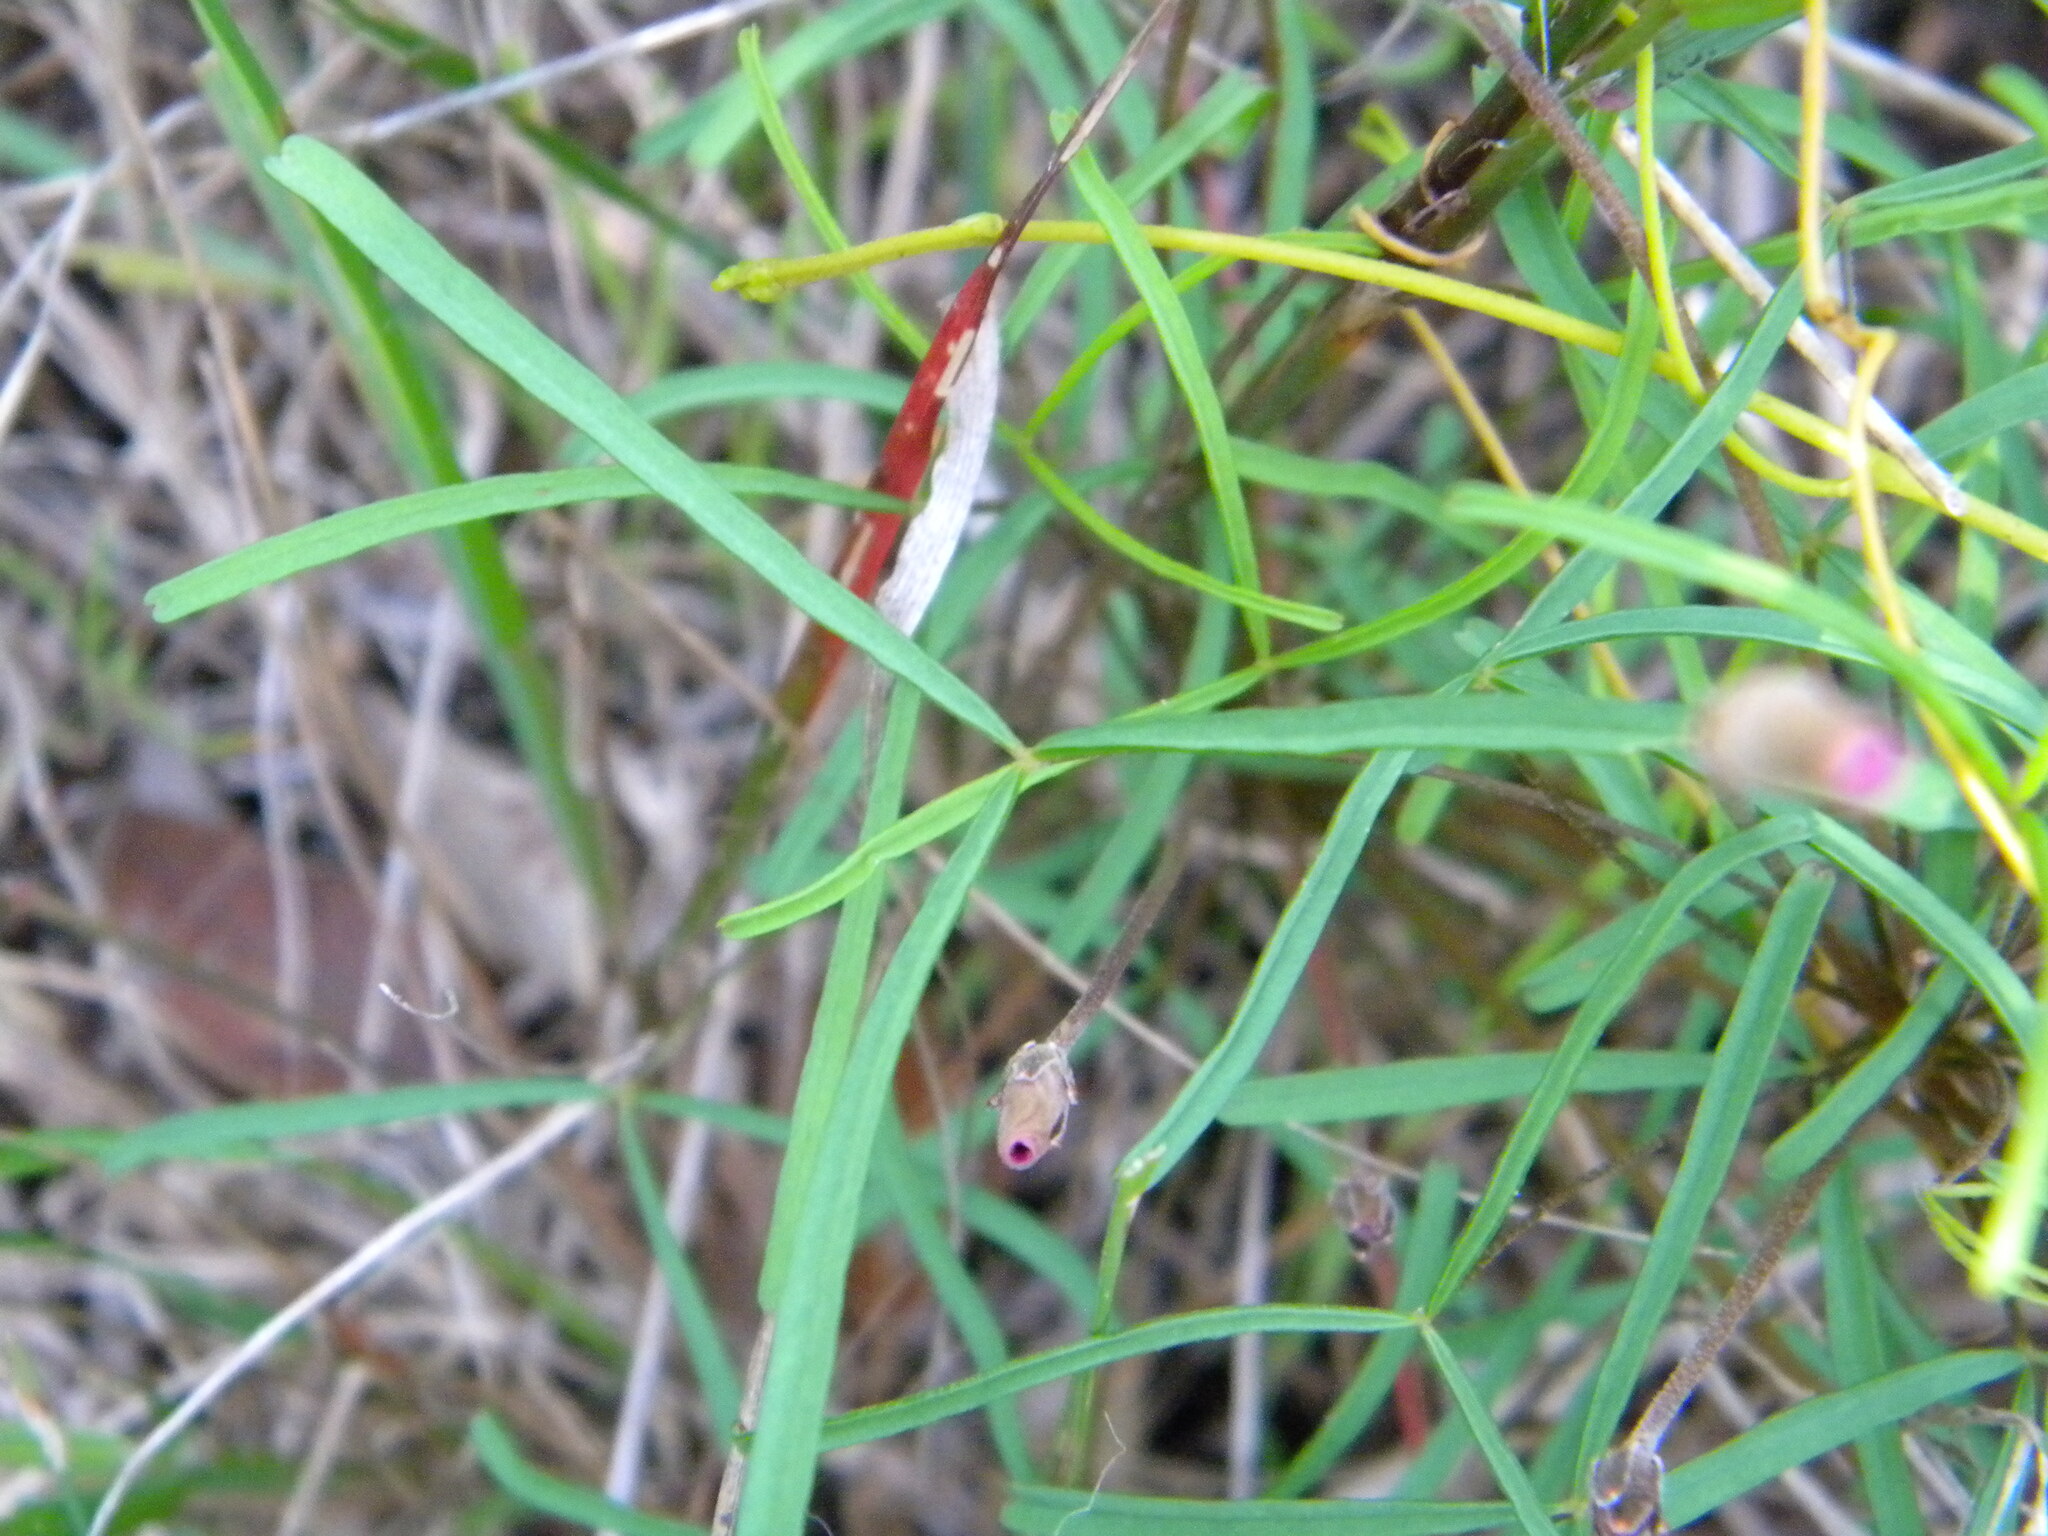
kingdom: Plantae
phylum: Tracheophyta
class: Magnoliopsida
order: Oxalidales
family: Oxalidaceae
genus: Oxalis
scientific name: Oxalis polyphylla
